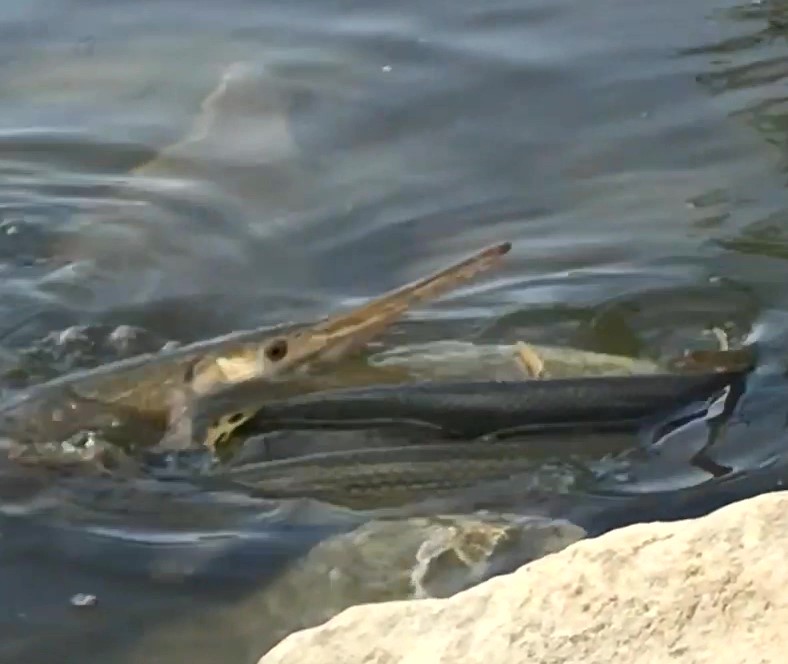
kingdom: Animalia
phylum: Chordata
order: Lepisosteiformes
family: Lepisosteidae
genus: Lepisosteus
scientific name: Lepisosteus osseus
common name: Longnose gar
